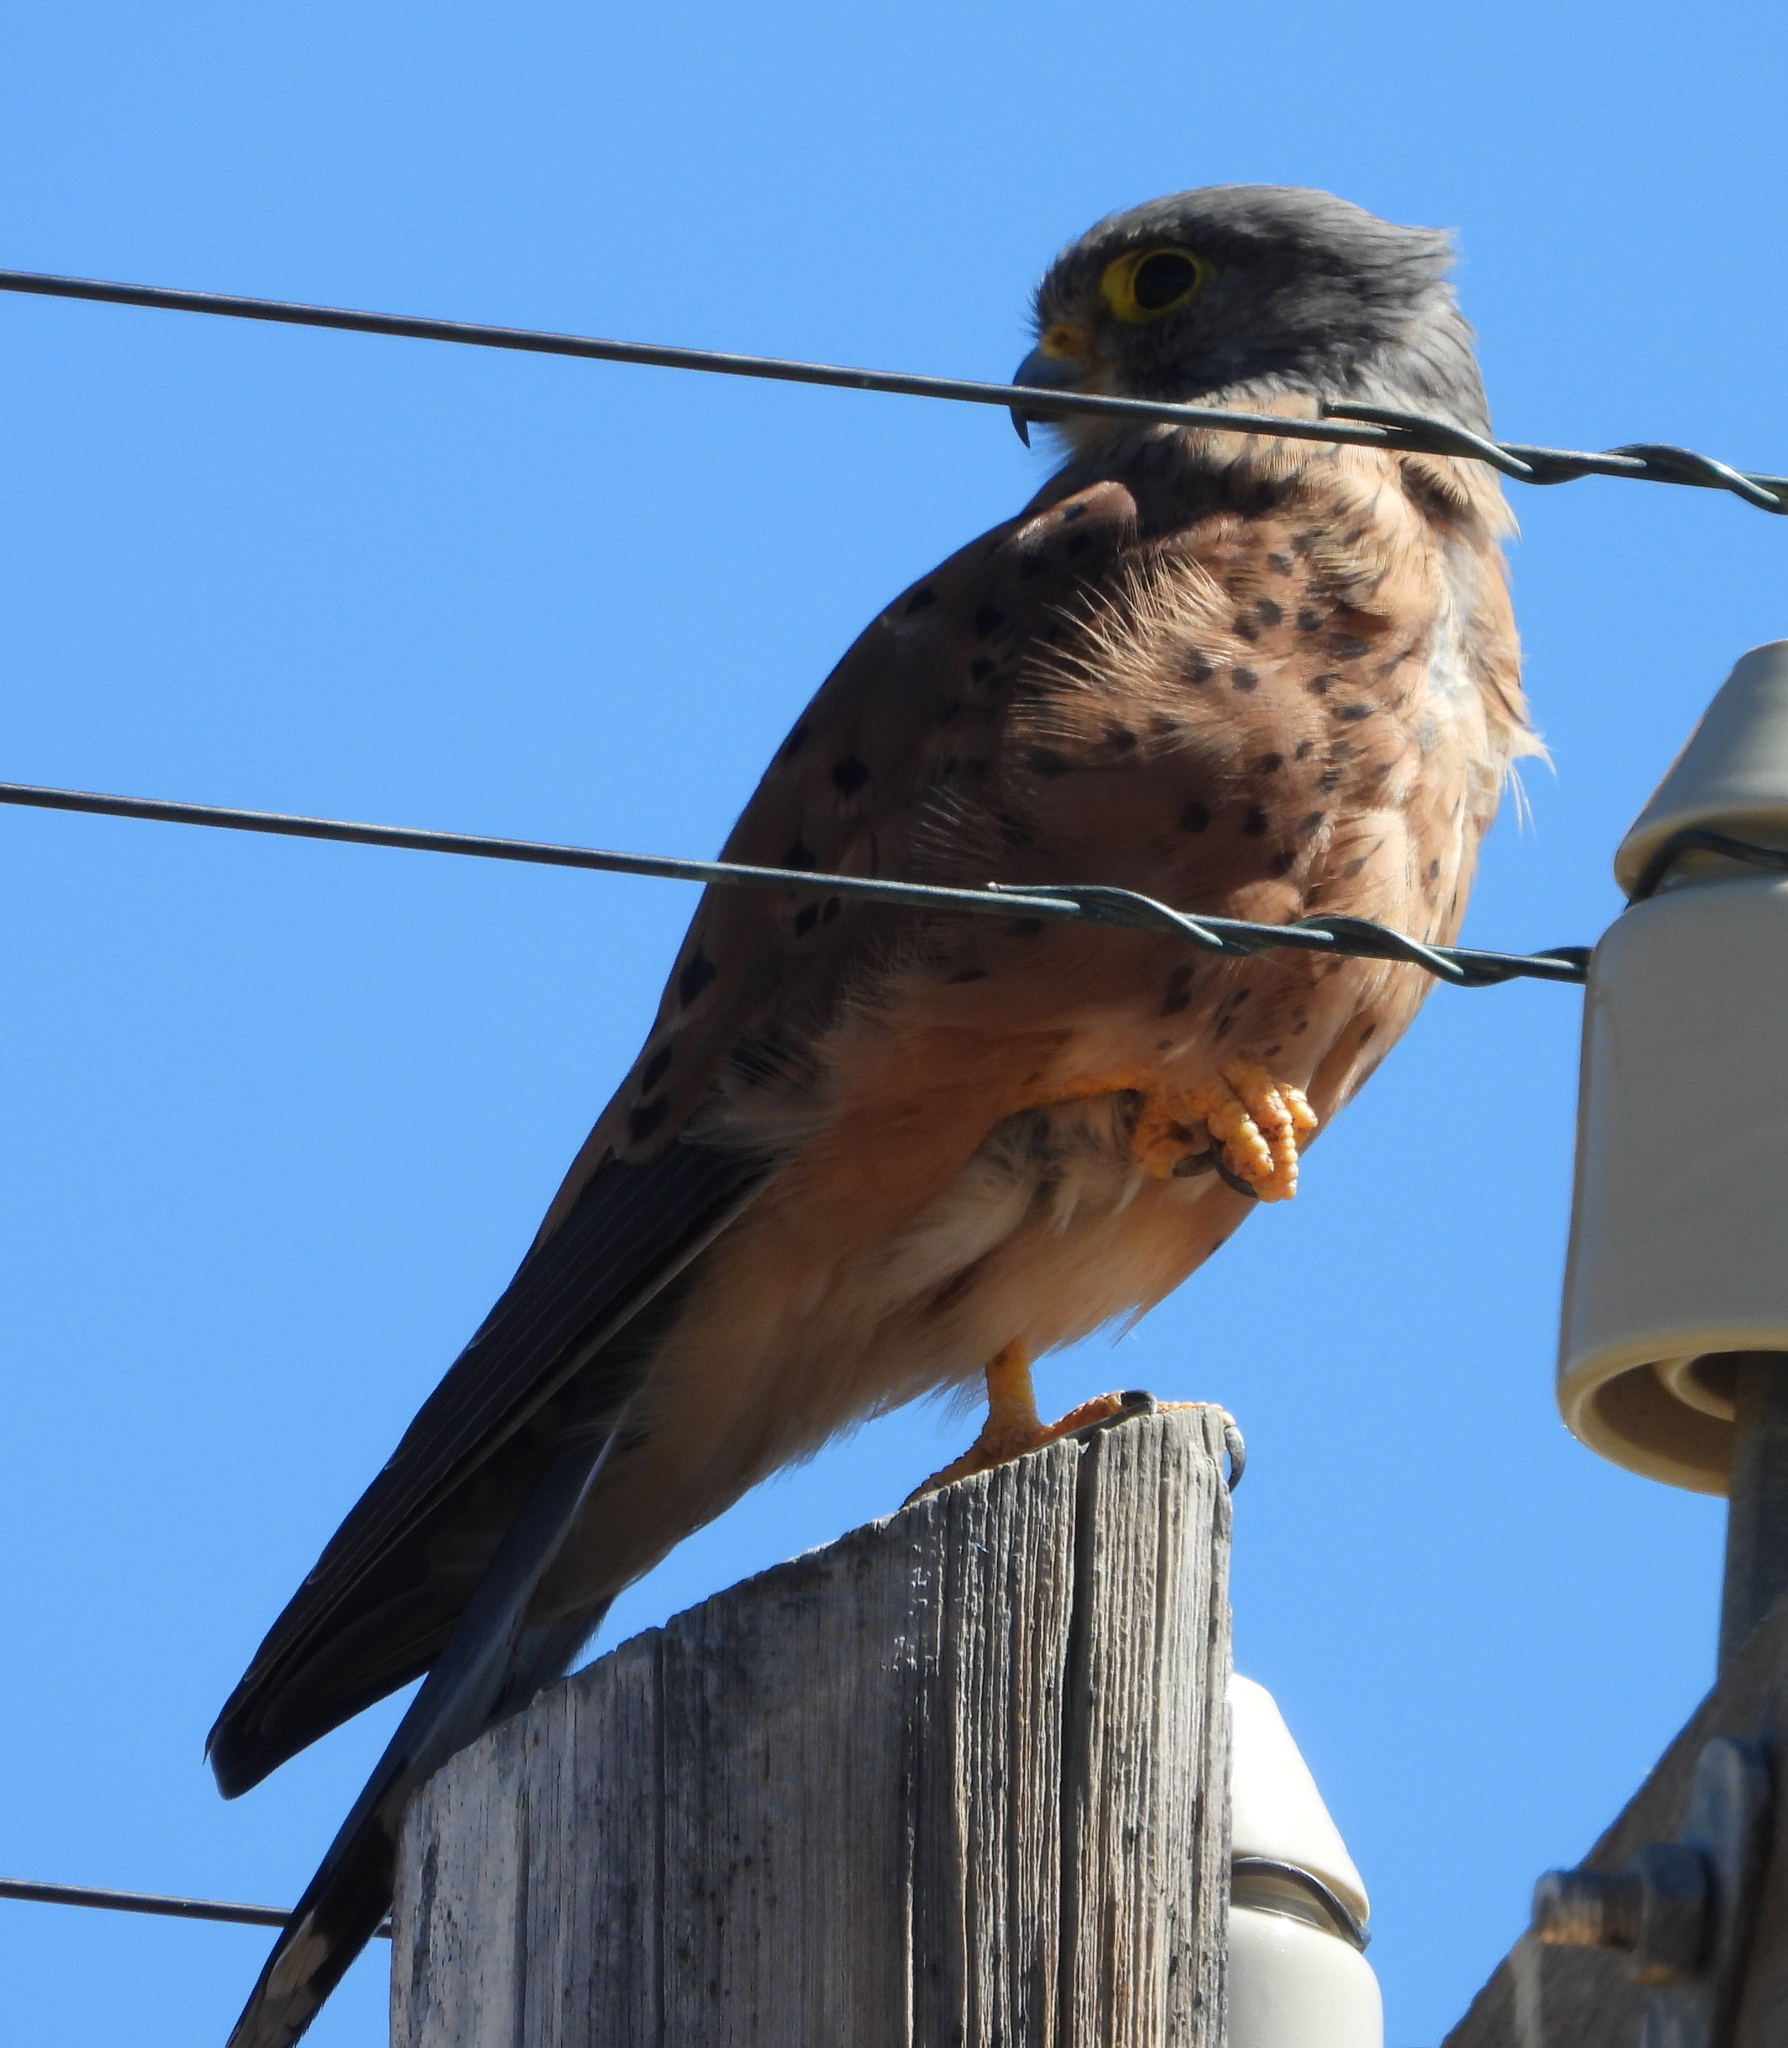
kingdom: Animalia
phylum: Chordata
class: Aves
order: Falconiformes
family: Falconidae
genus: Falco
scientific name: Falco rupicolus
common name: Rock kestrel
